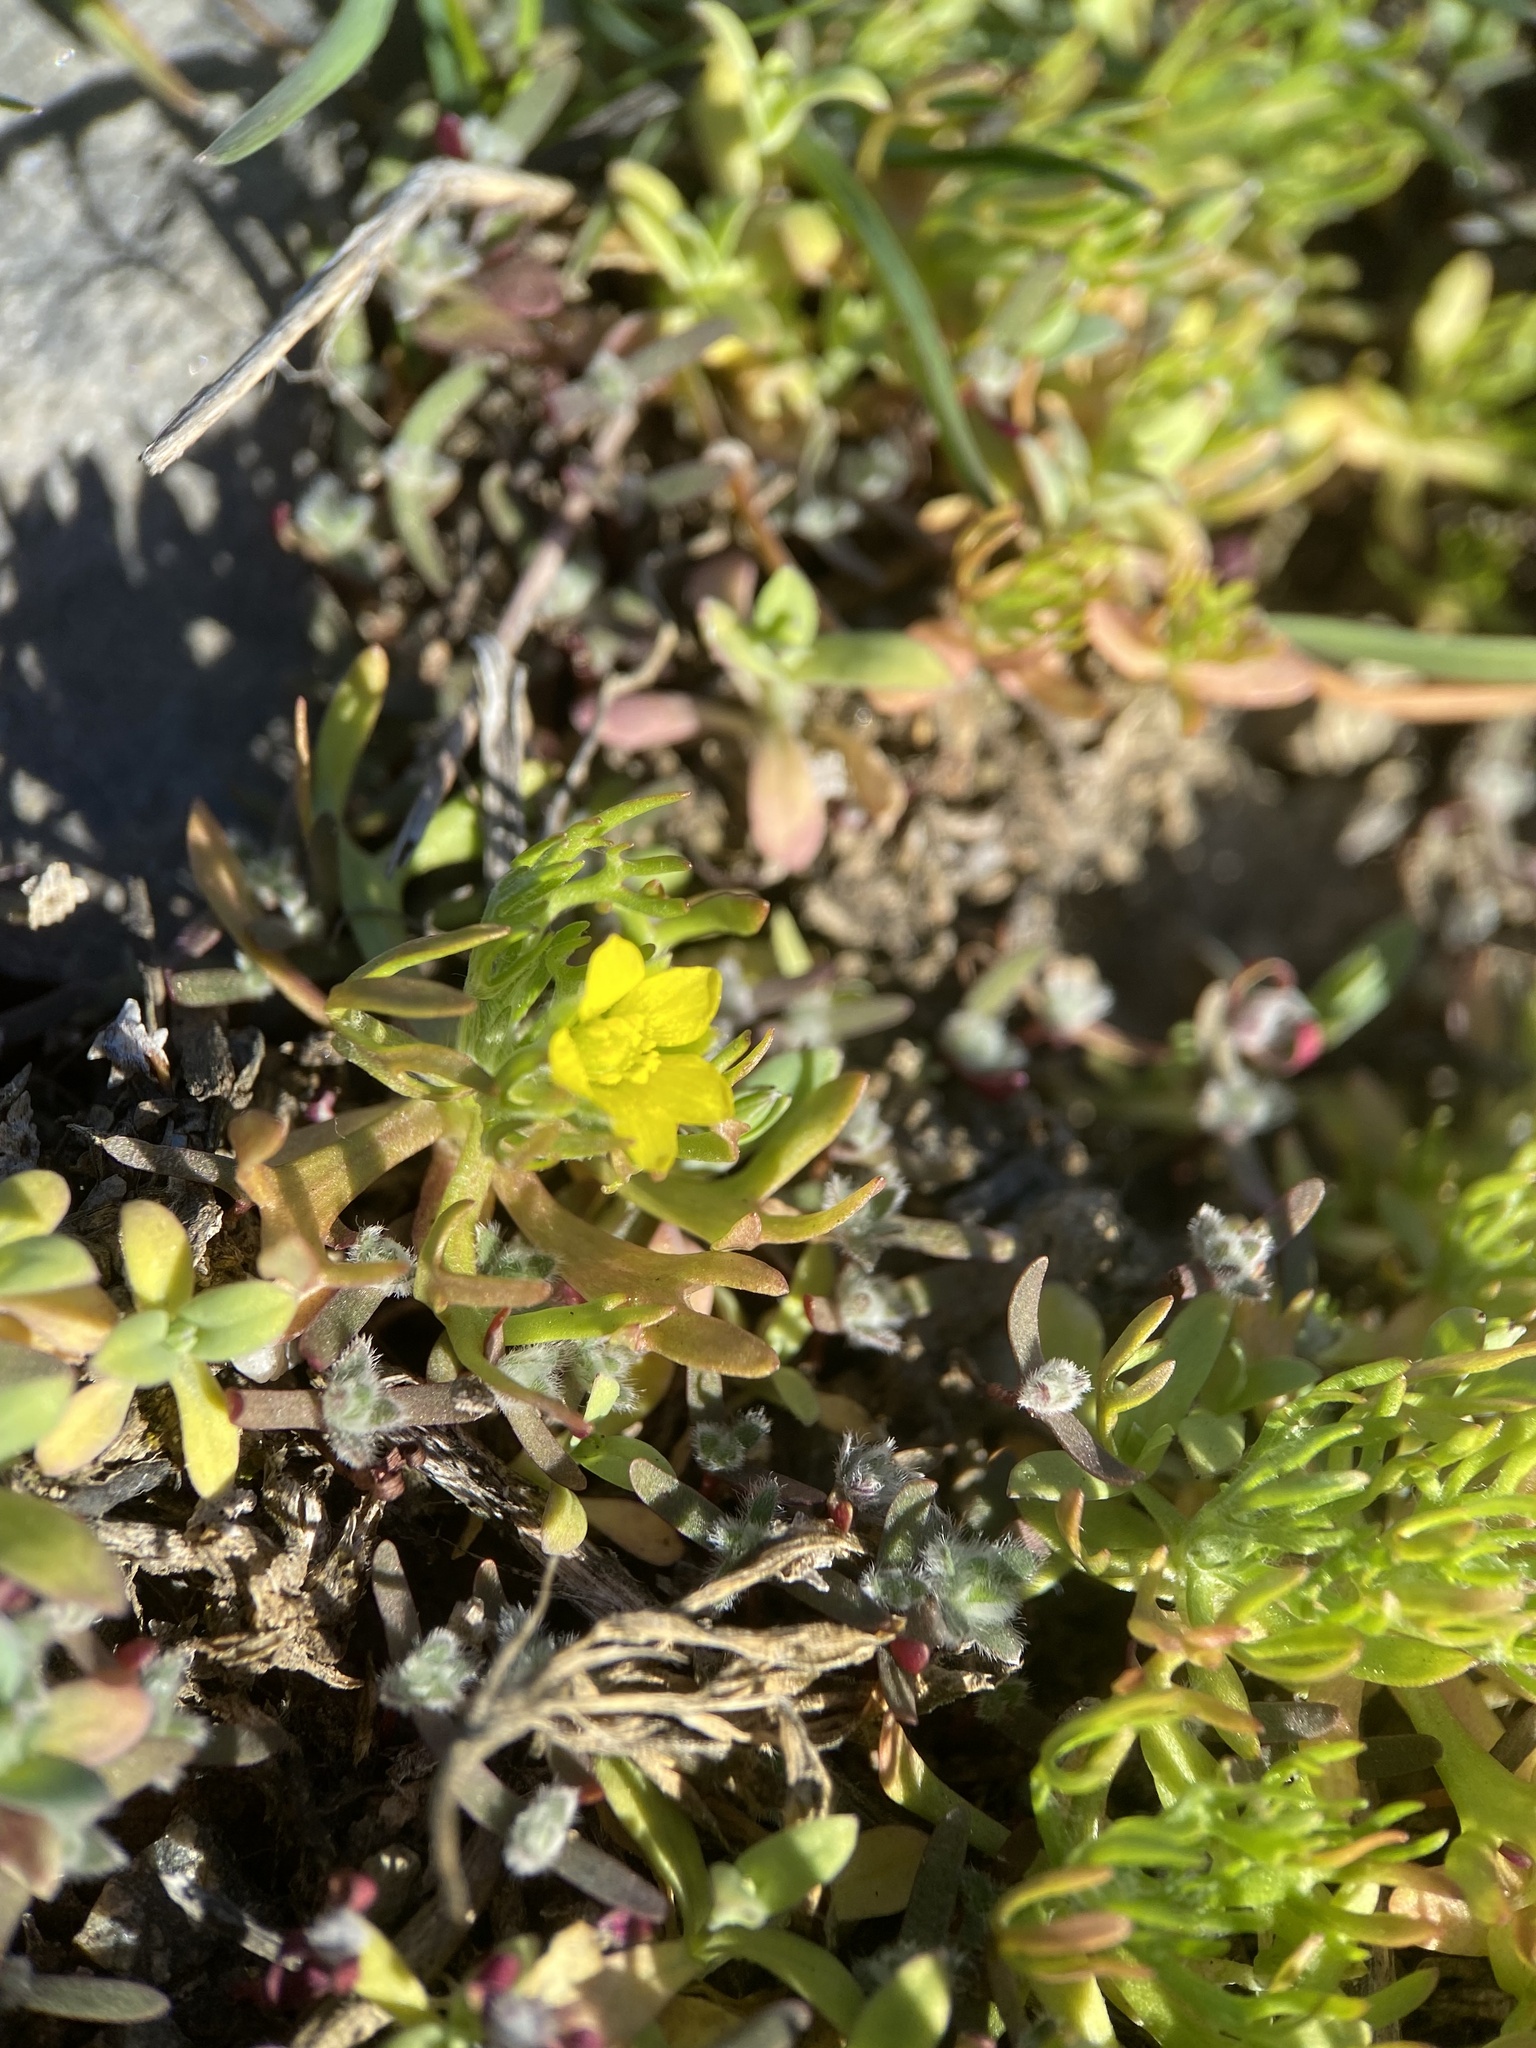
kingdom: Plantae
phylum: Tracheophyta
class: Magnoliopsida
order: Ranunculales
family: Ranunculaceae
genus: Ceratocephala
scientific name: Ceratocephala orthoceras
